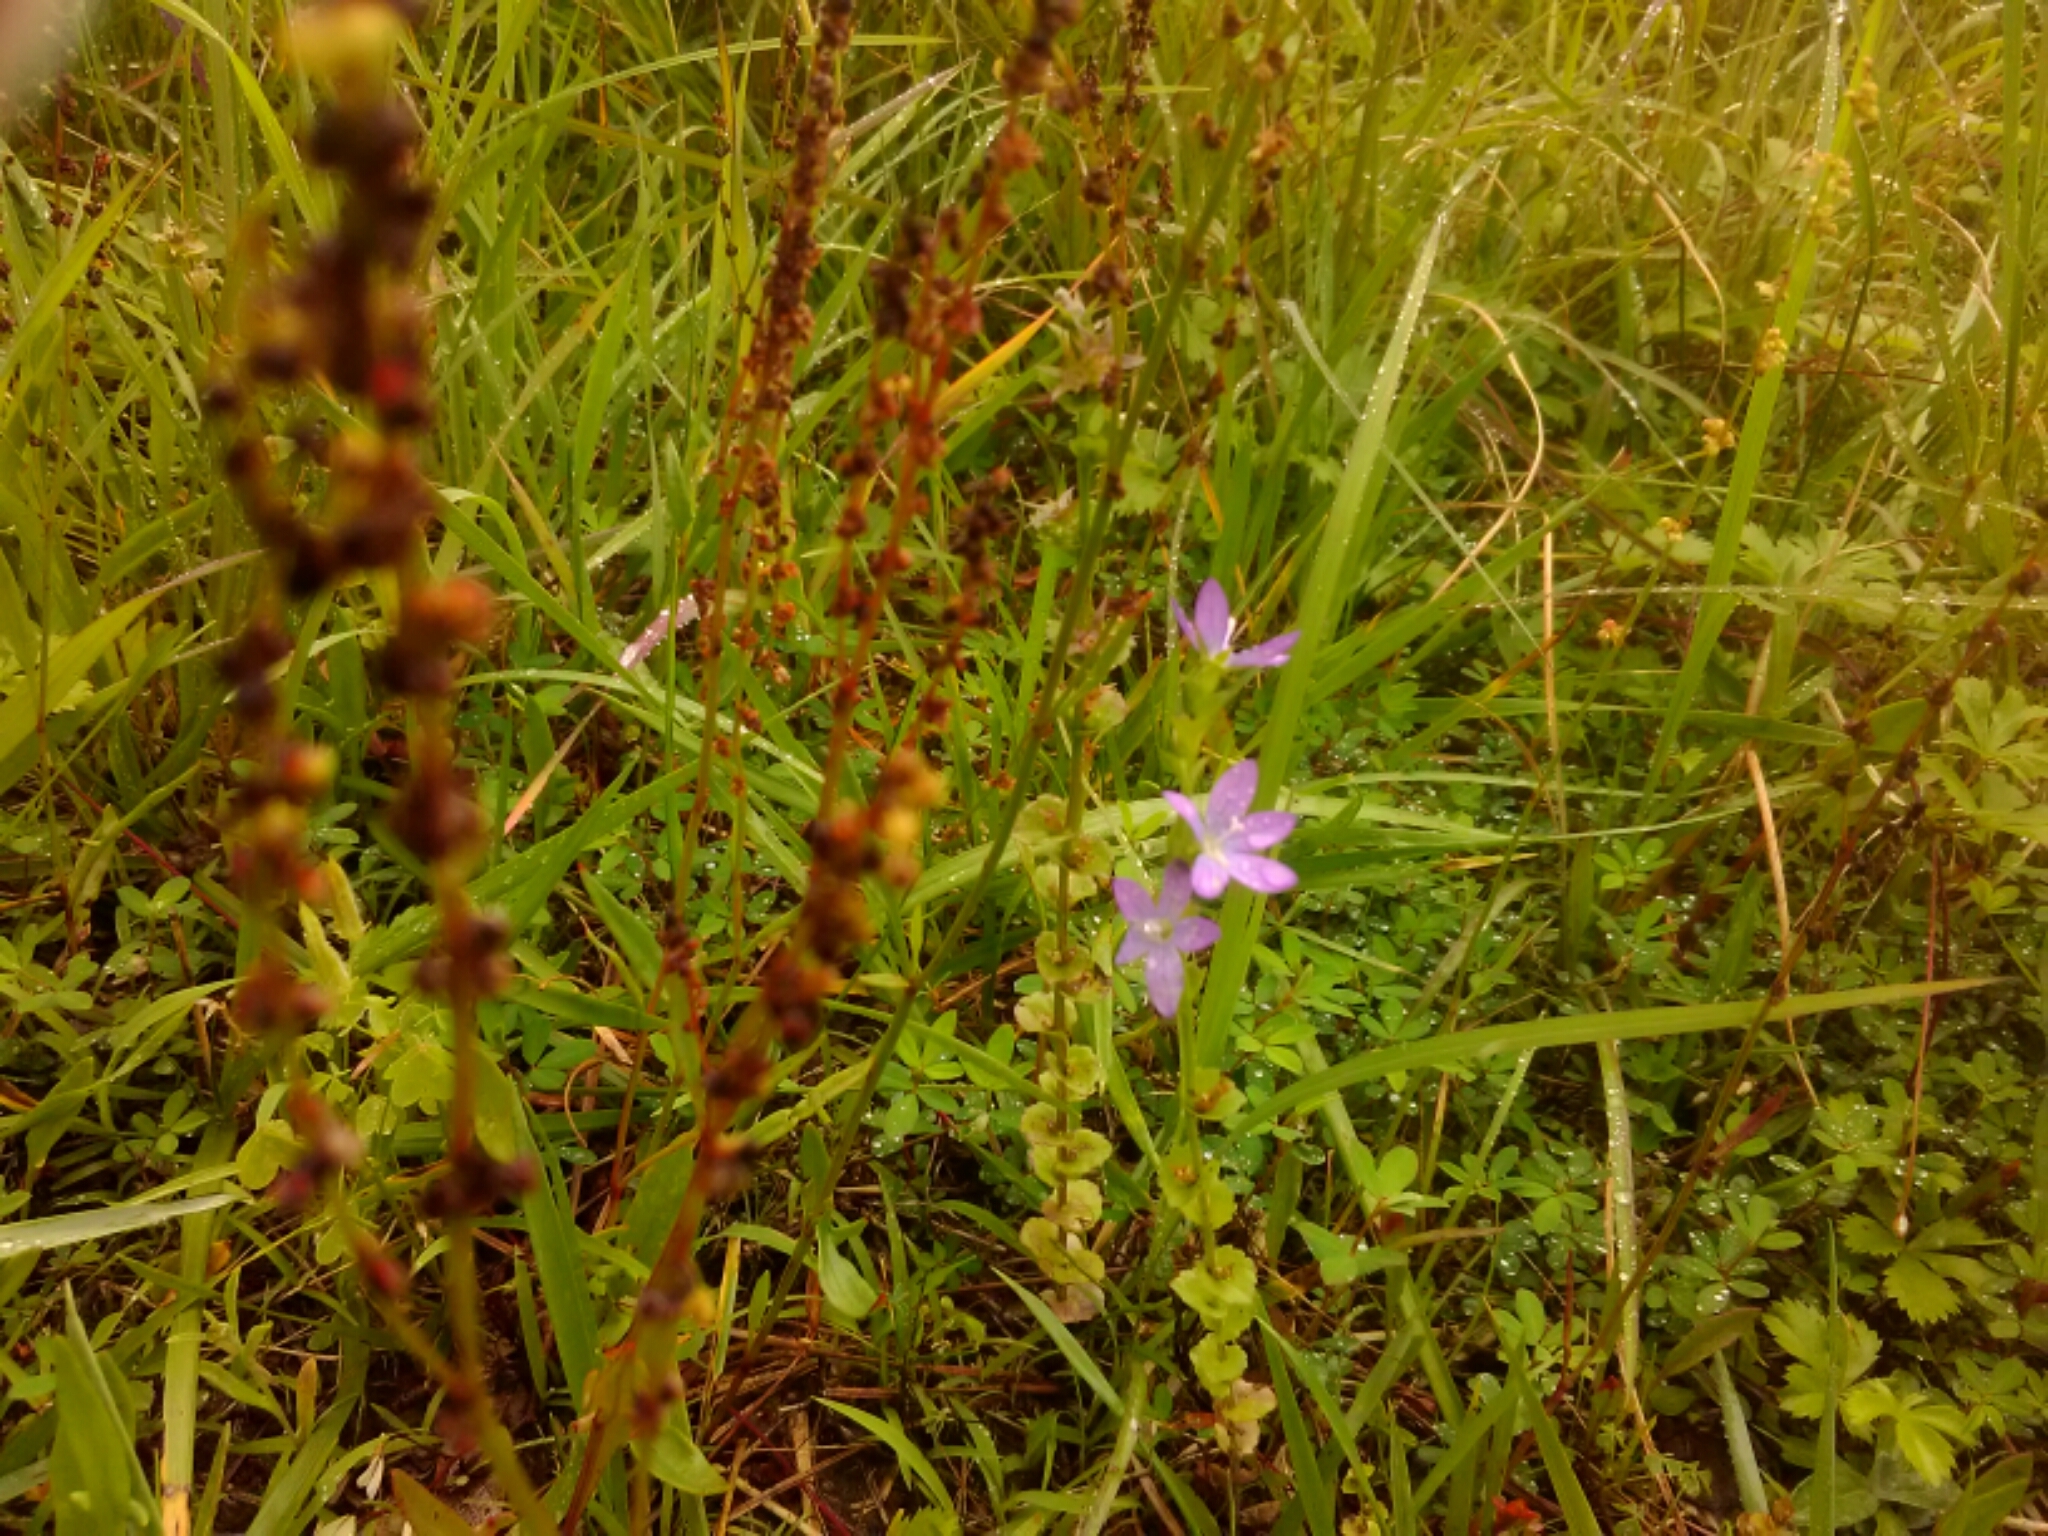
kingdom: Plantae
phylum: Tracheophyta
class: Magnoliopsida
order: Asterales
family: Campanulaceae
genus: Triodanis
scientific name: Triodanis perfoliata
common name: Clasping venus' looking-glass
